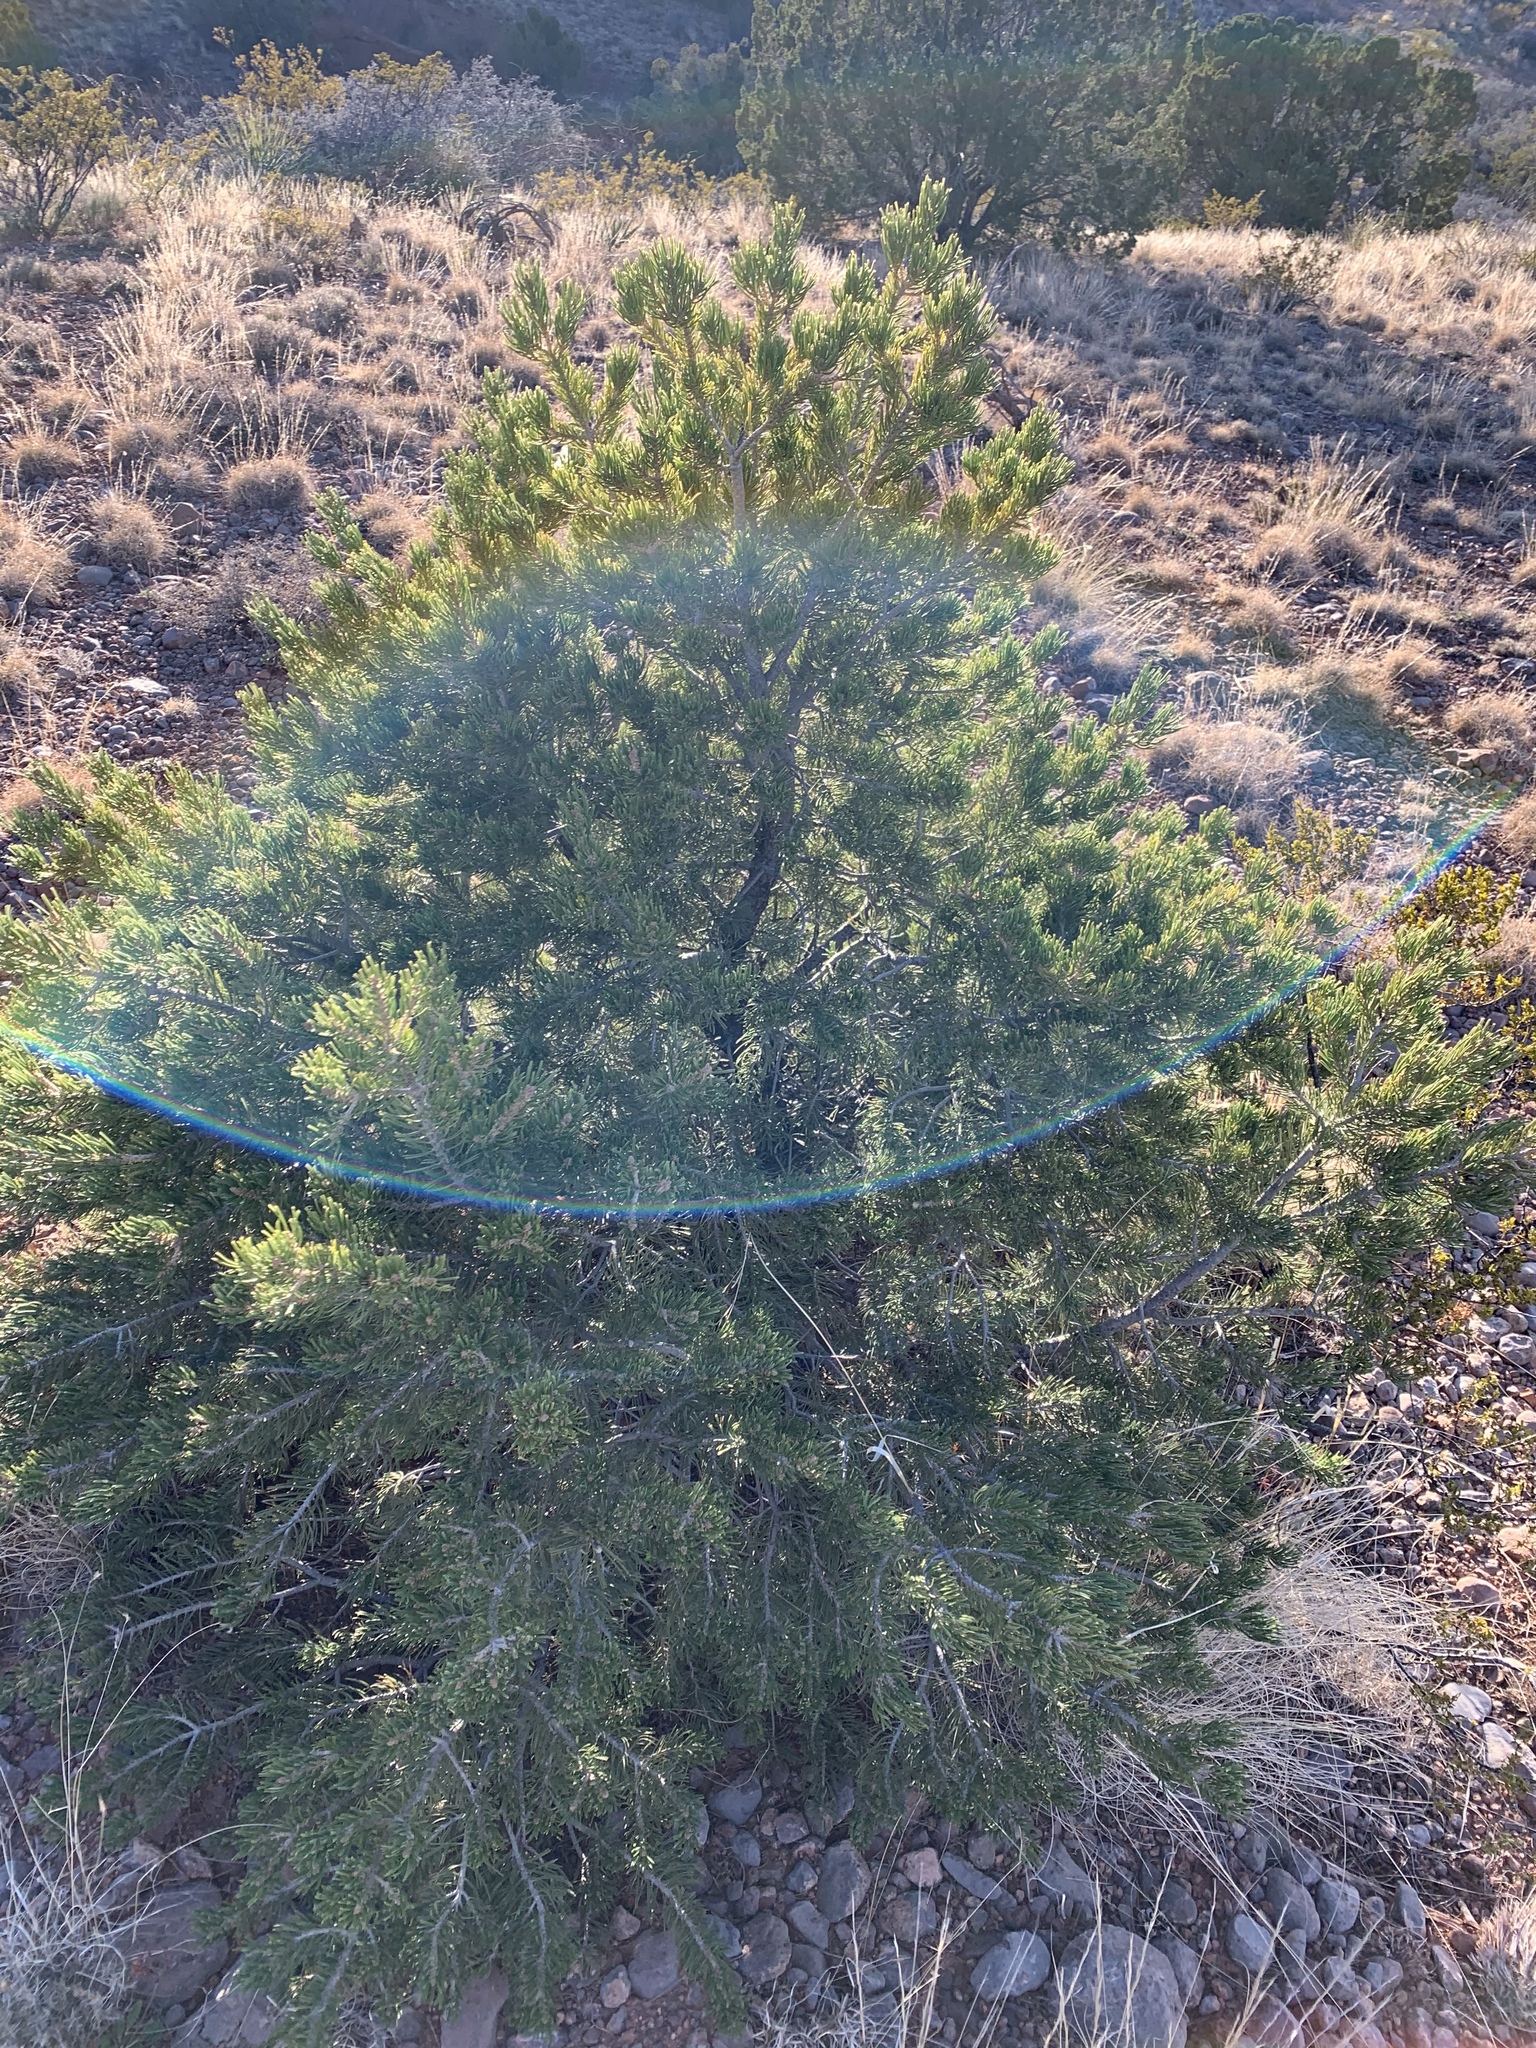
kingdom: Plantae
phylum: Tracheophyta
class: Pinopsida
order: Pinales
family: Pinaceae
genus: Pinus
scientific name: Pinus edulis
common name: Colorado pinyon
